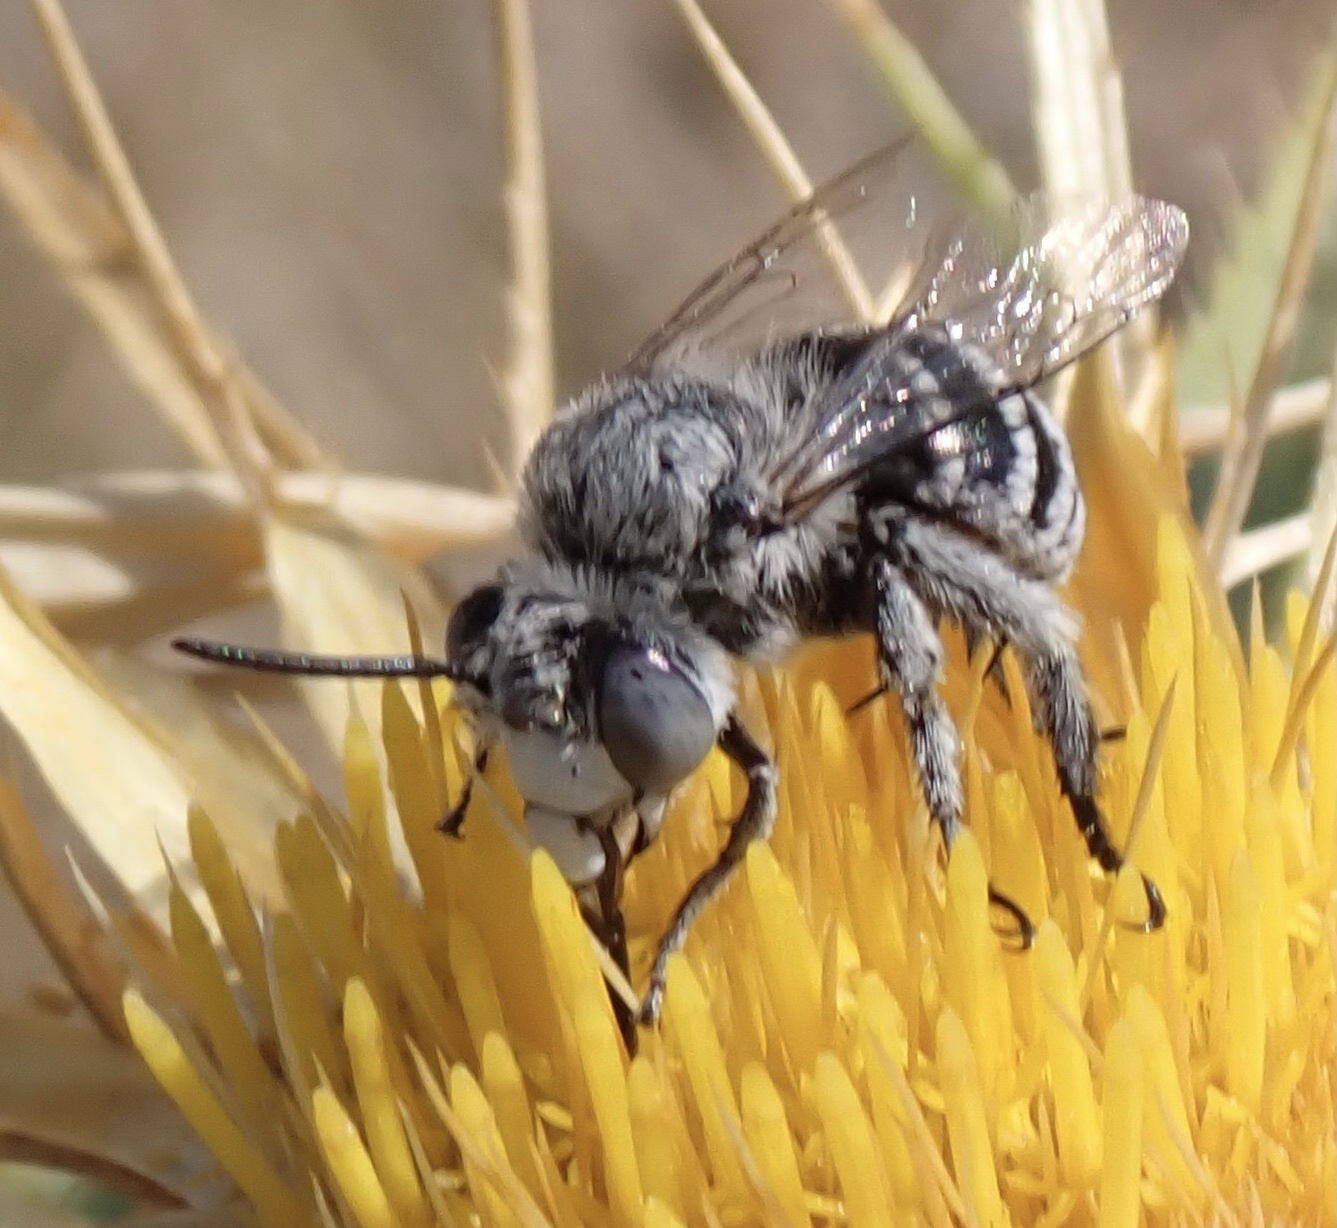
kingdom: Animalia
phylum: Arthropoda
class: Insecta
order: Hymenoptera
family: Apidae
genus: Amegilla
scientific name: Amegilla albigena
